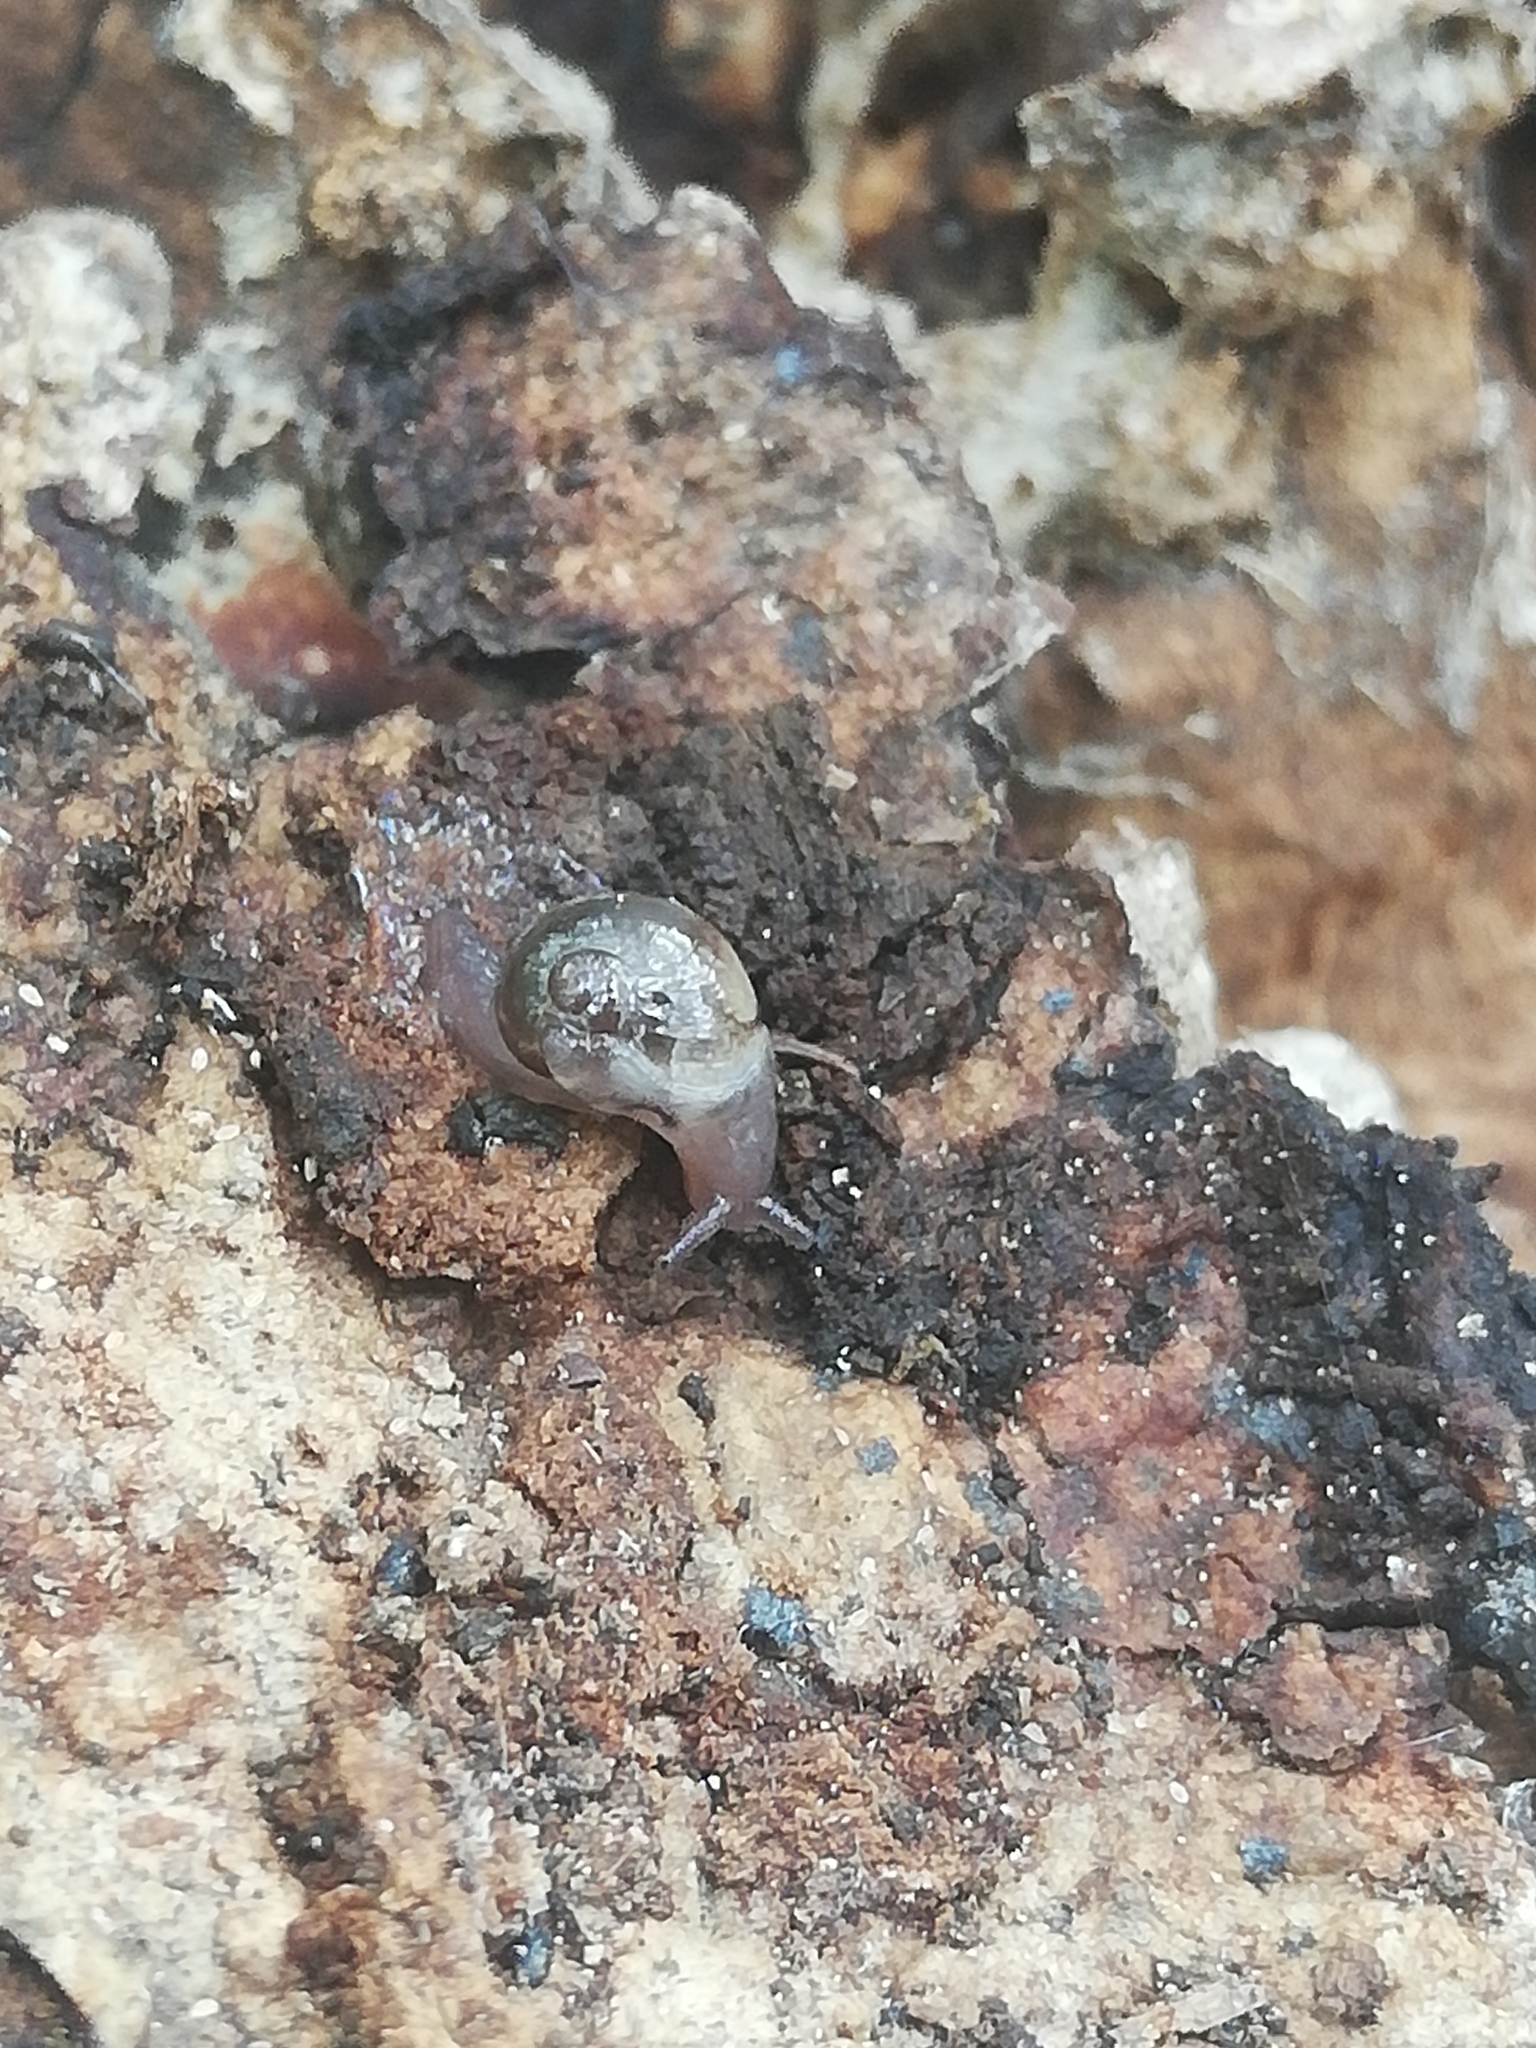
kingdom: Animalia
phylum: Mollusca
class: Gastropoda
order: Stylommatophora
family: Vitrinidae
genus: Vitrina
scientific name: Vitrina pellucida
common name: Pellucid glass snail
